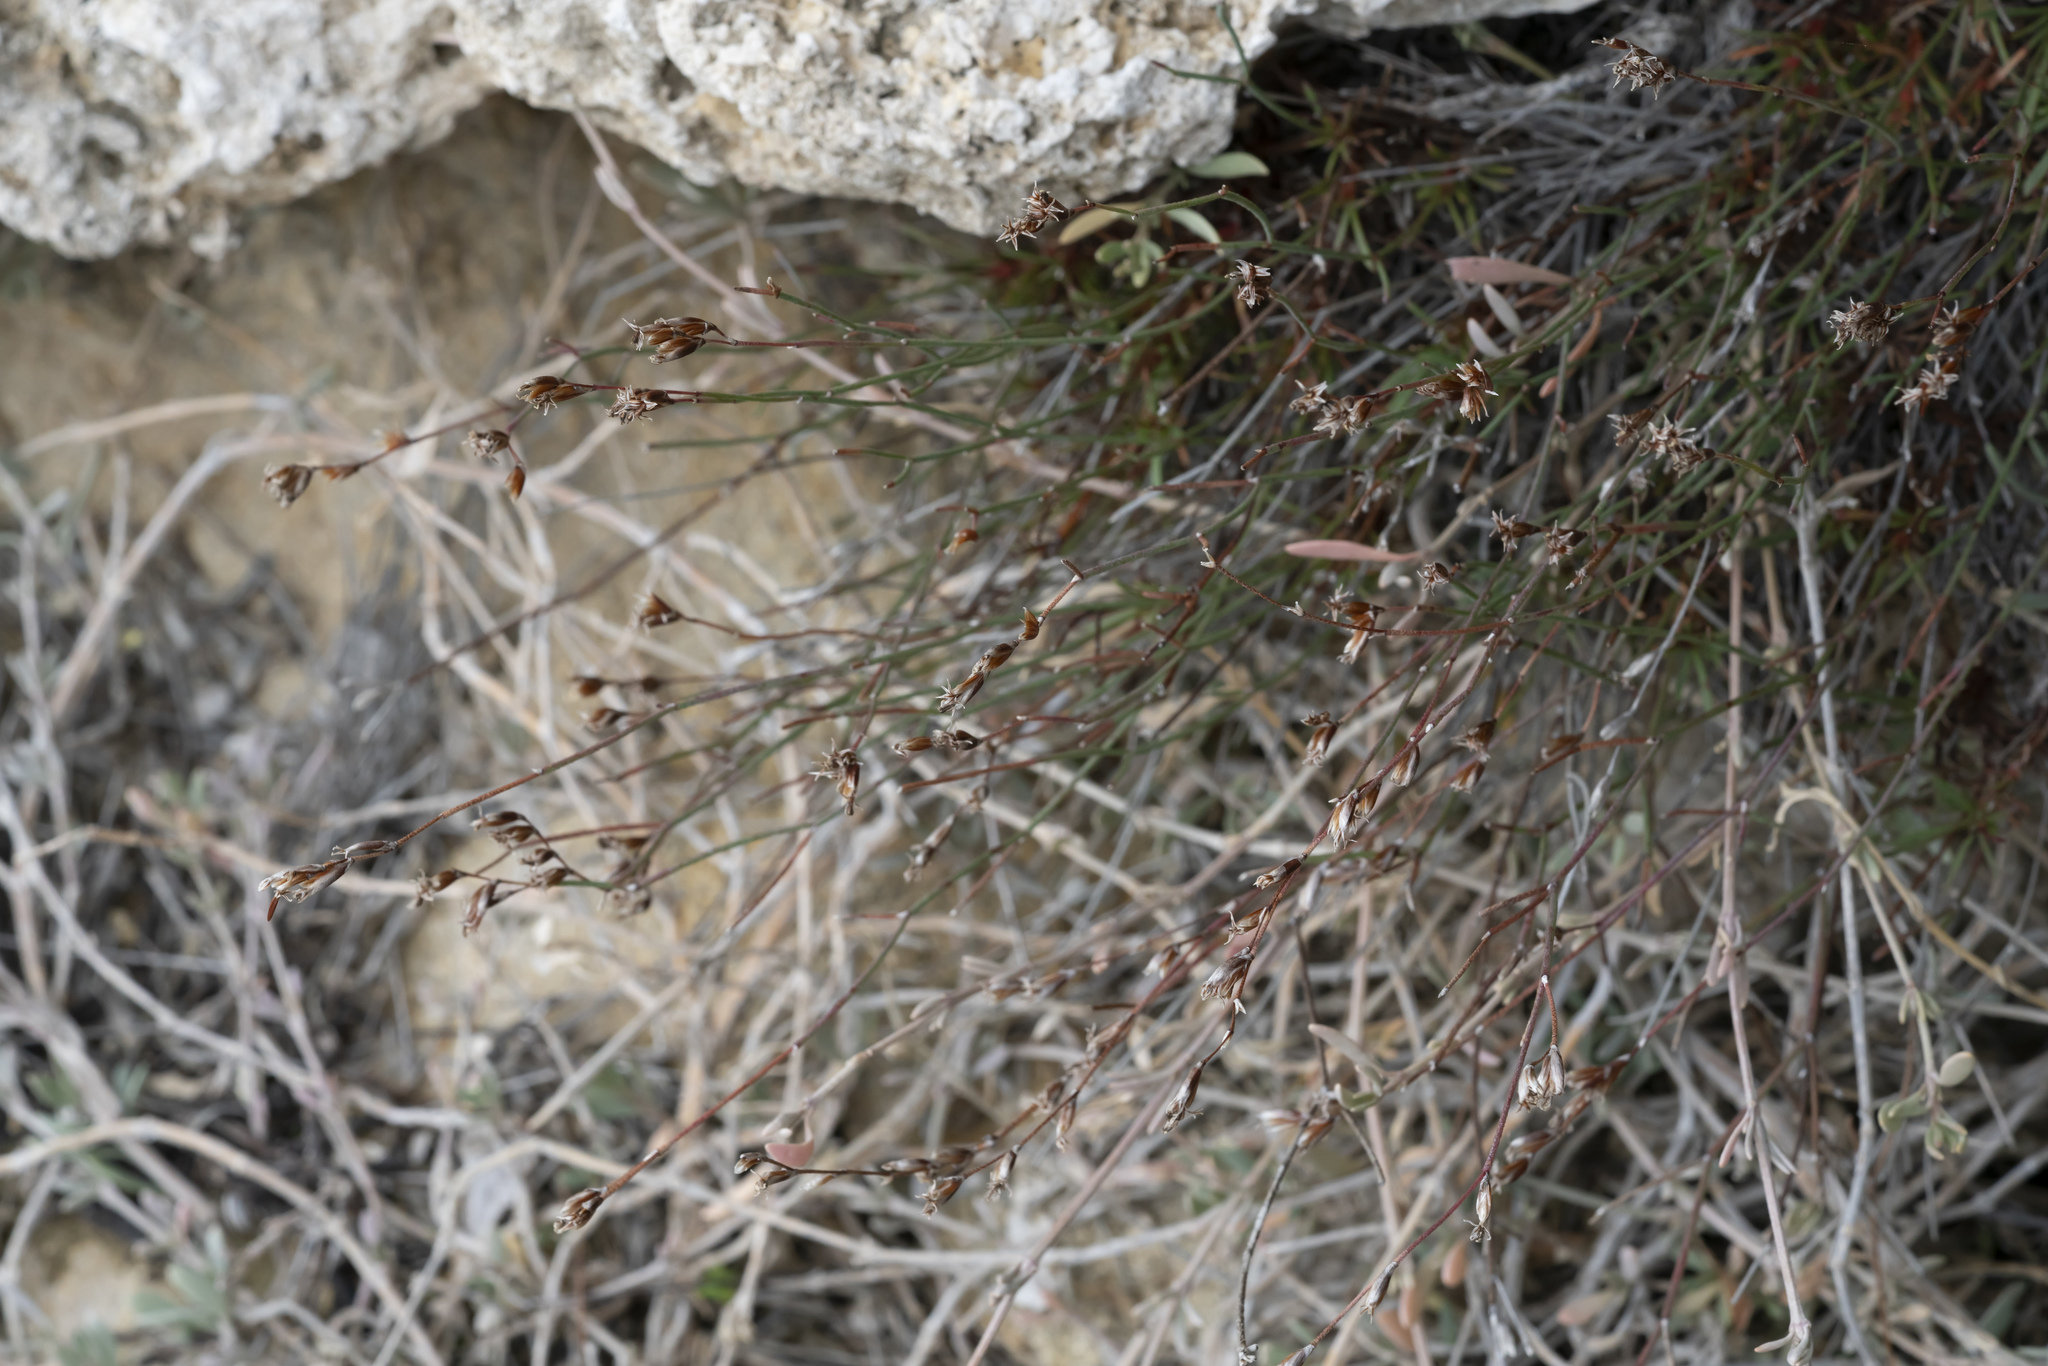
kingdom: Plantae
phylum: Tracheophyta
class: Magnoliopsida
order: Caryophyllales
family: Plumbaginaceae
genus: Limonium
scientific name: Limonium
